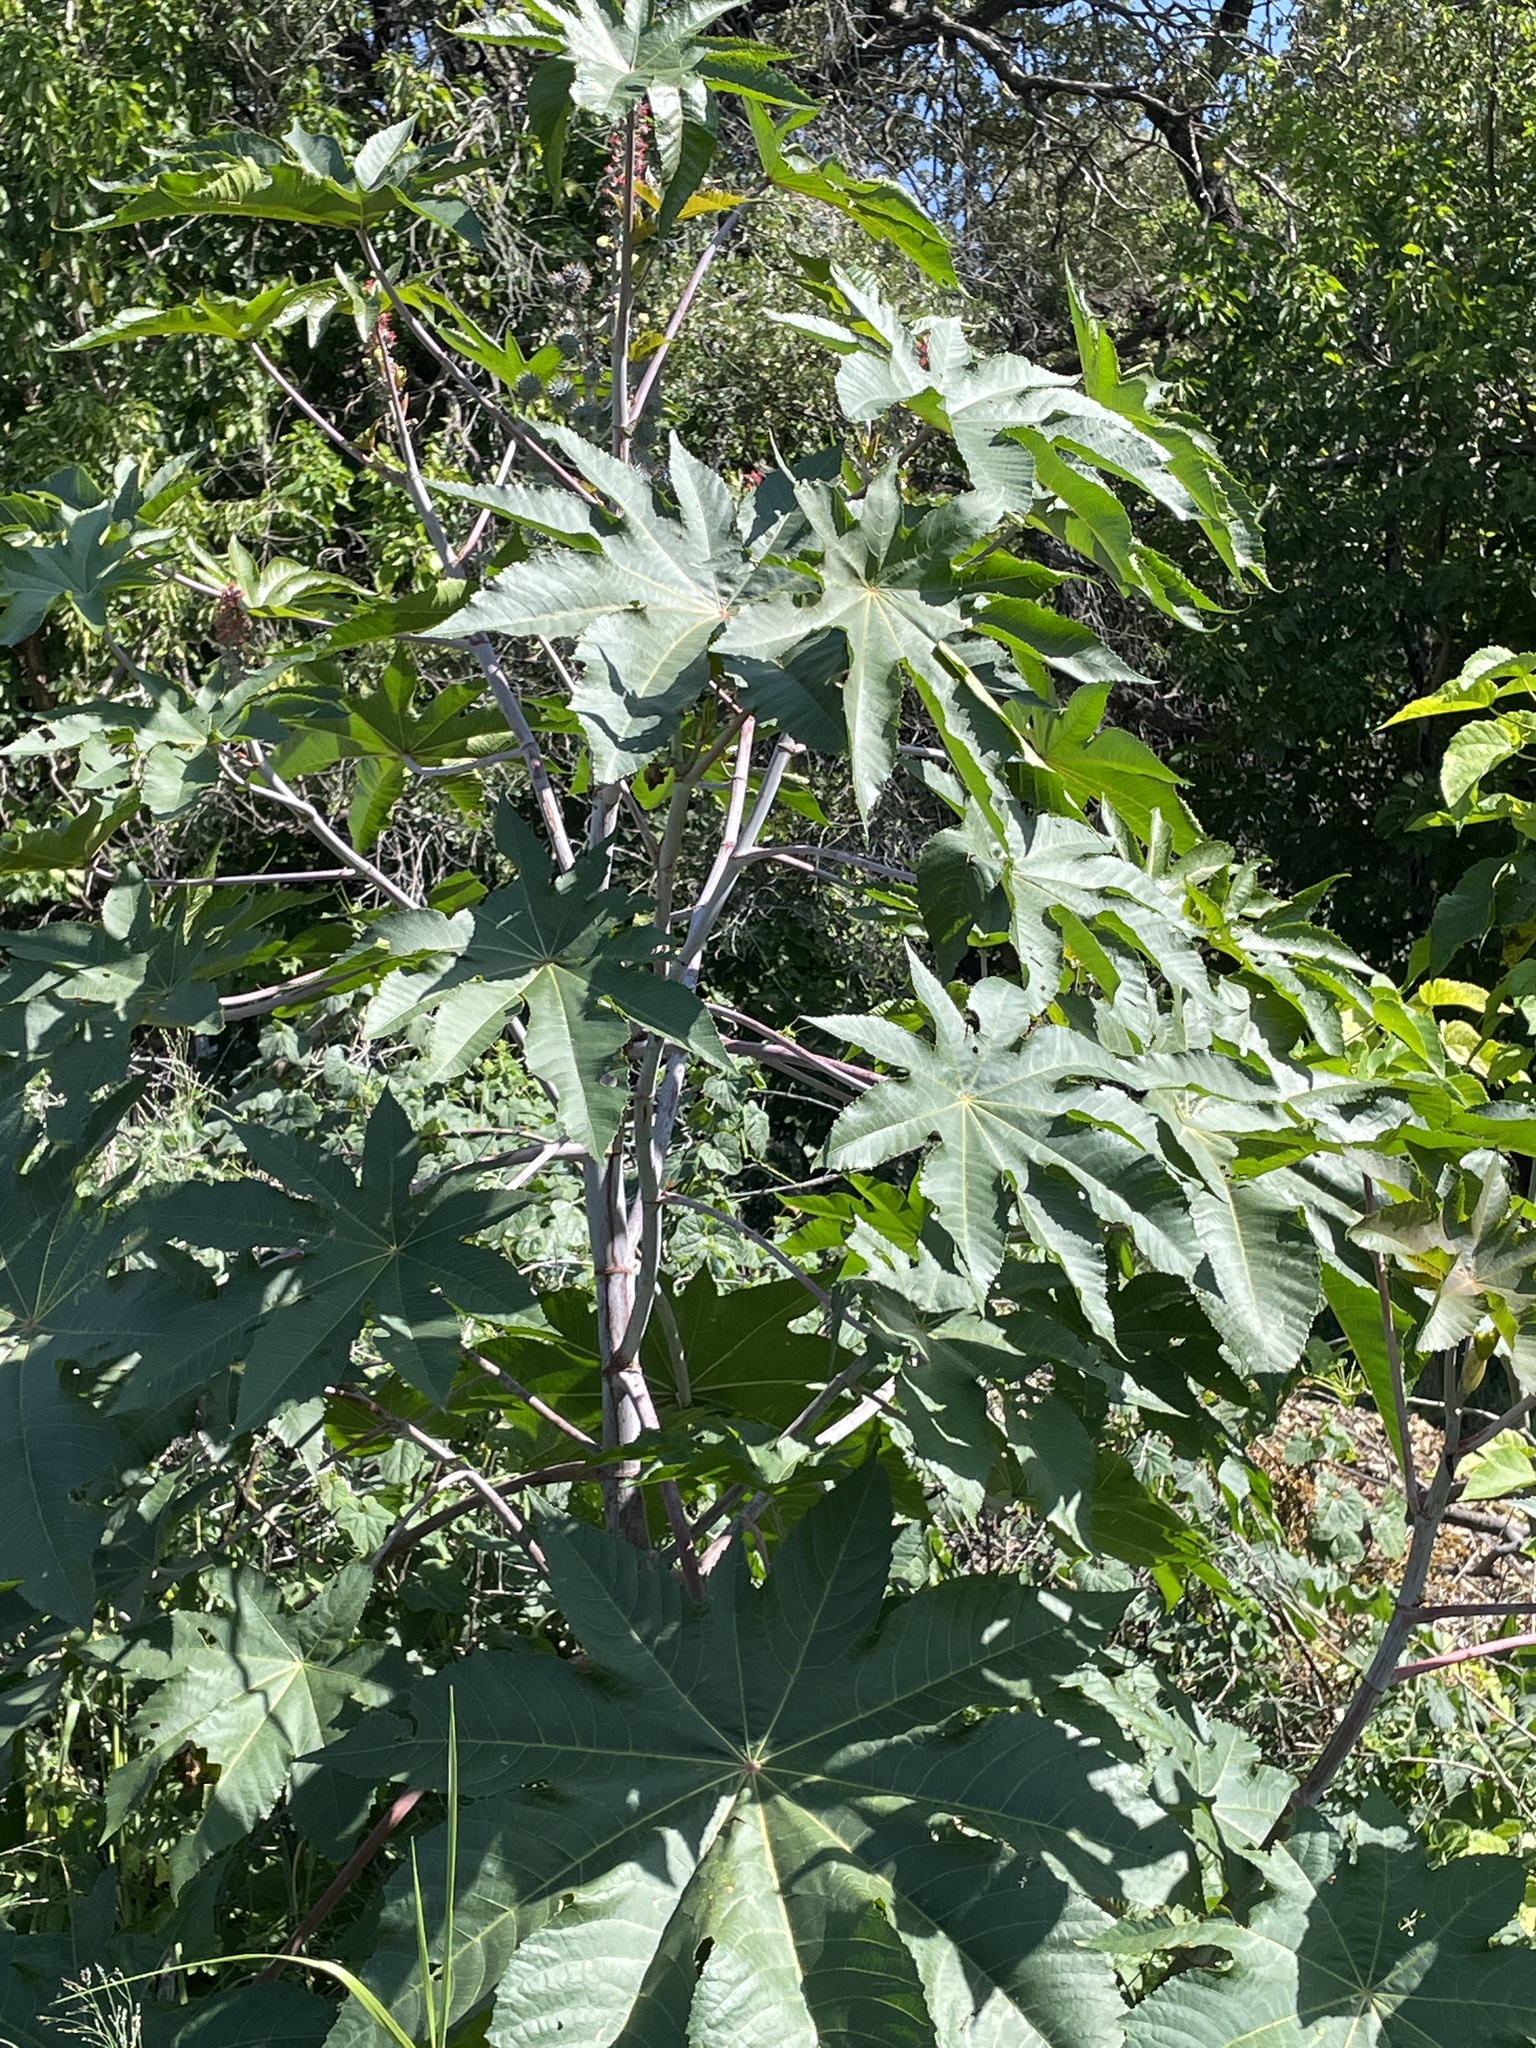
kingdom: Plantae
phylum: Tracheophyta
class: Magnoliopsida
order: Malpighiales
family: Euphorbiaceae
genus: Ricinus
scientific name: Ricinus communis
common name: Castor-oil-plant
